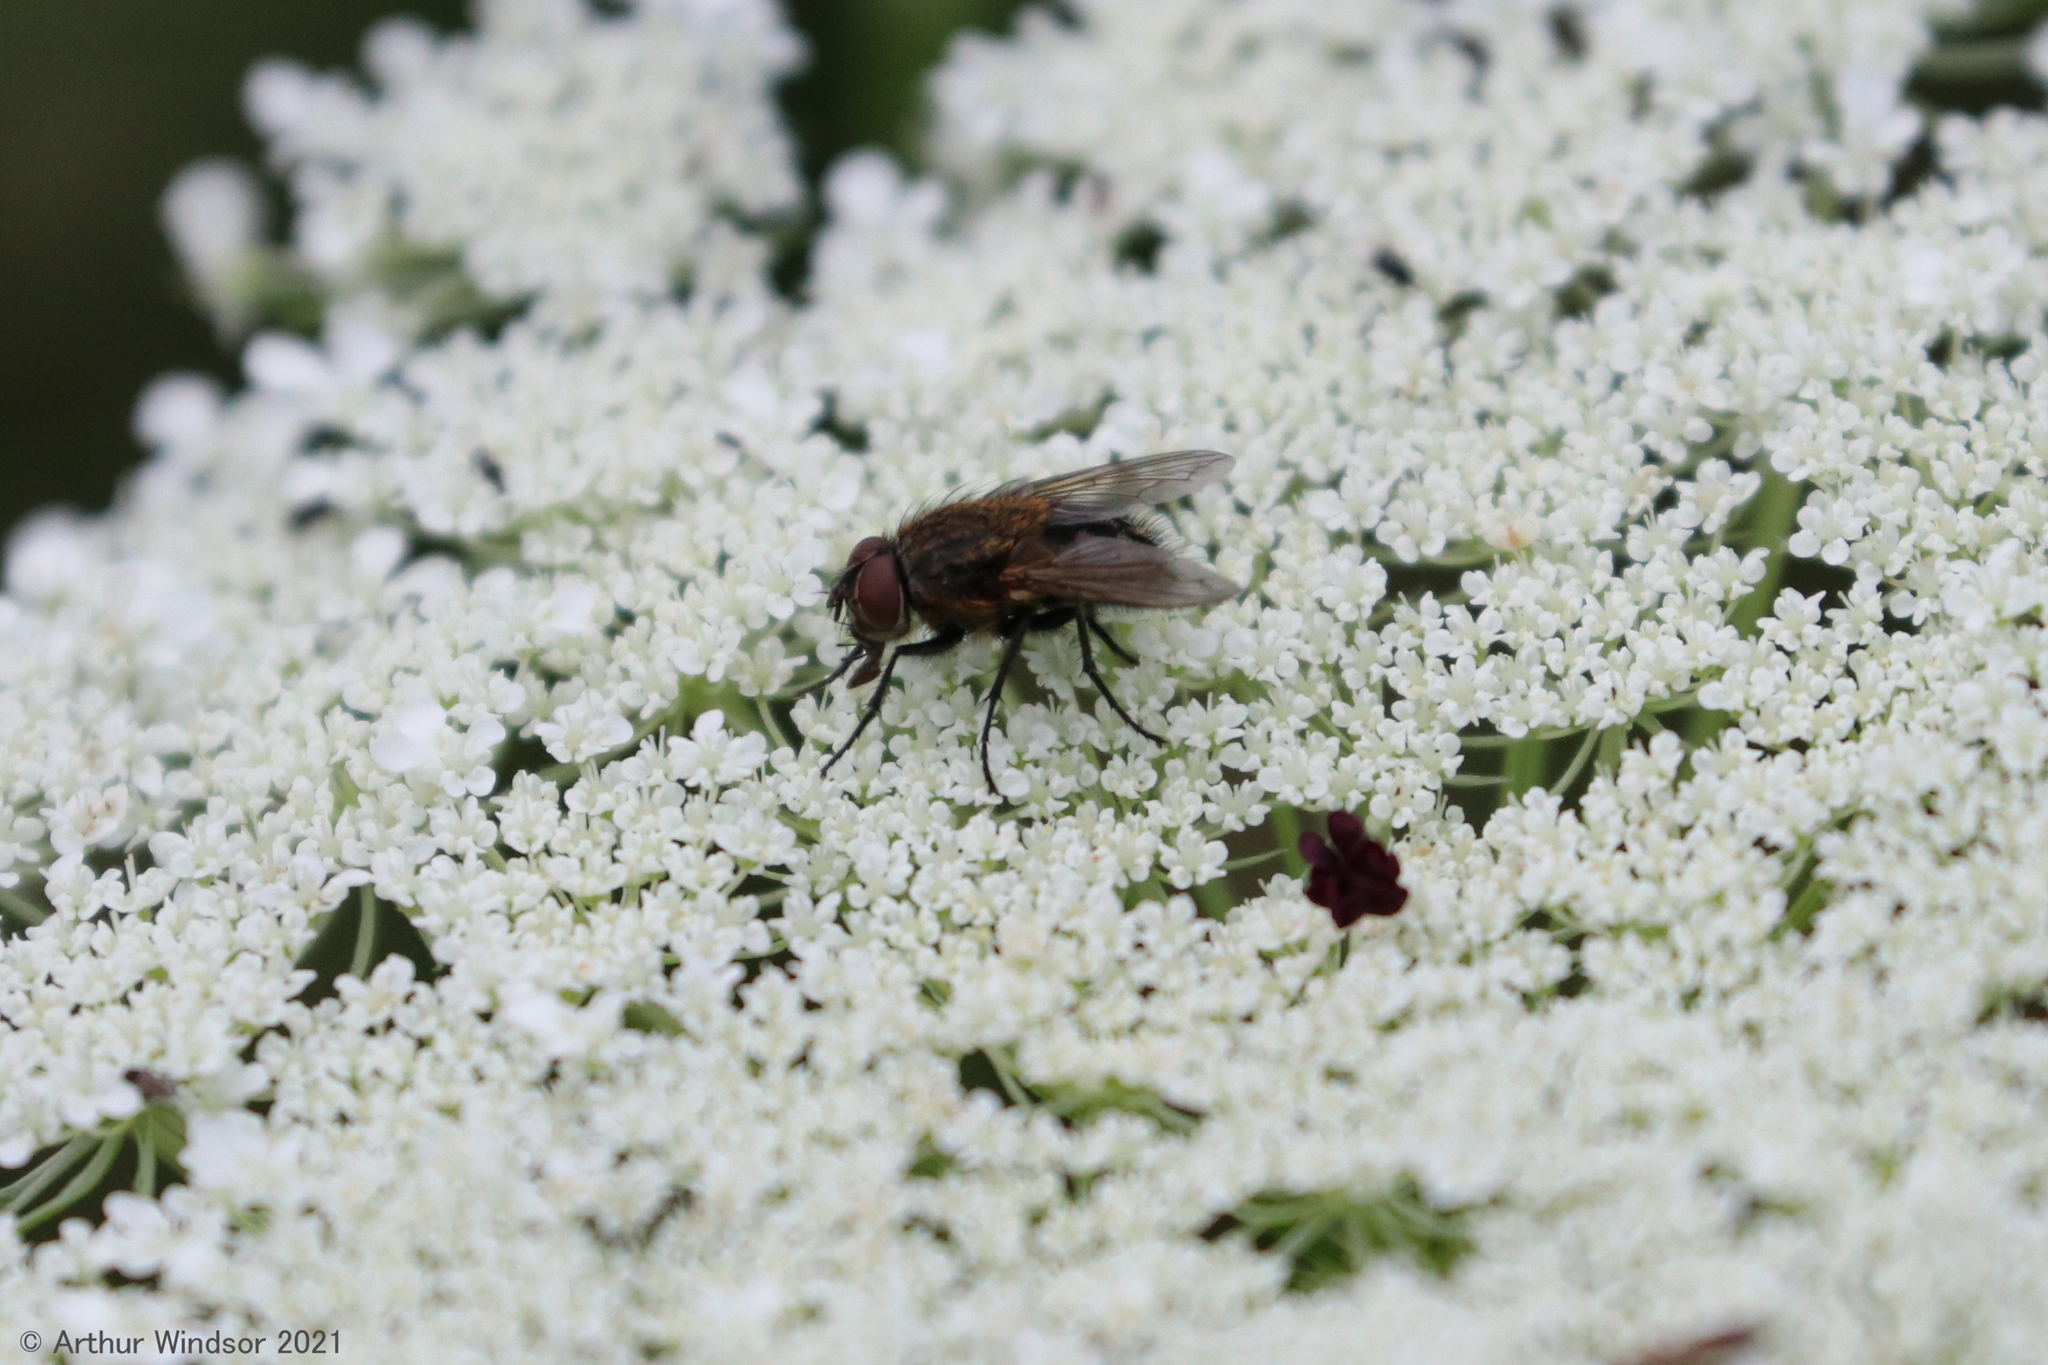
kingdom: Animalia
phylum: Arthropoda
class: Insecta
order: Diptera
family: Polleniidae
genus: Pollenia
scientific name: Pollenia
